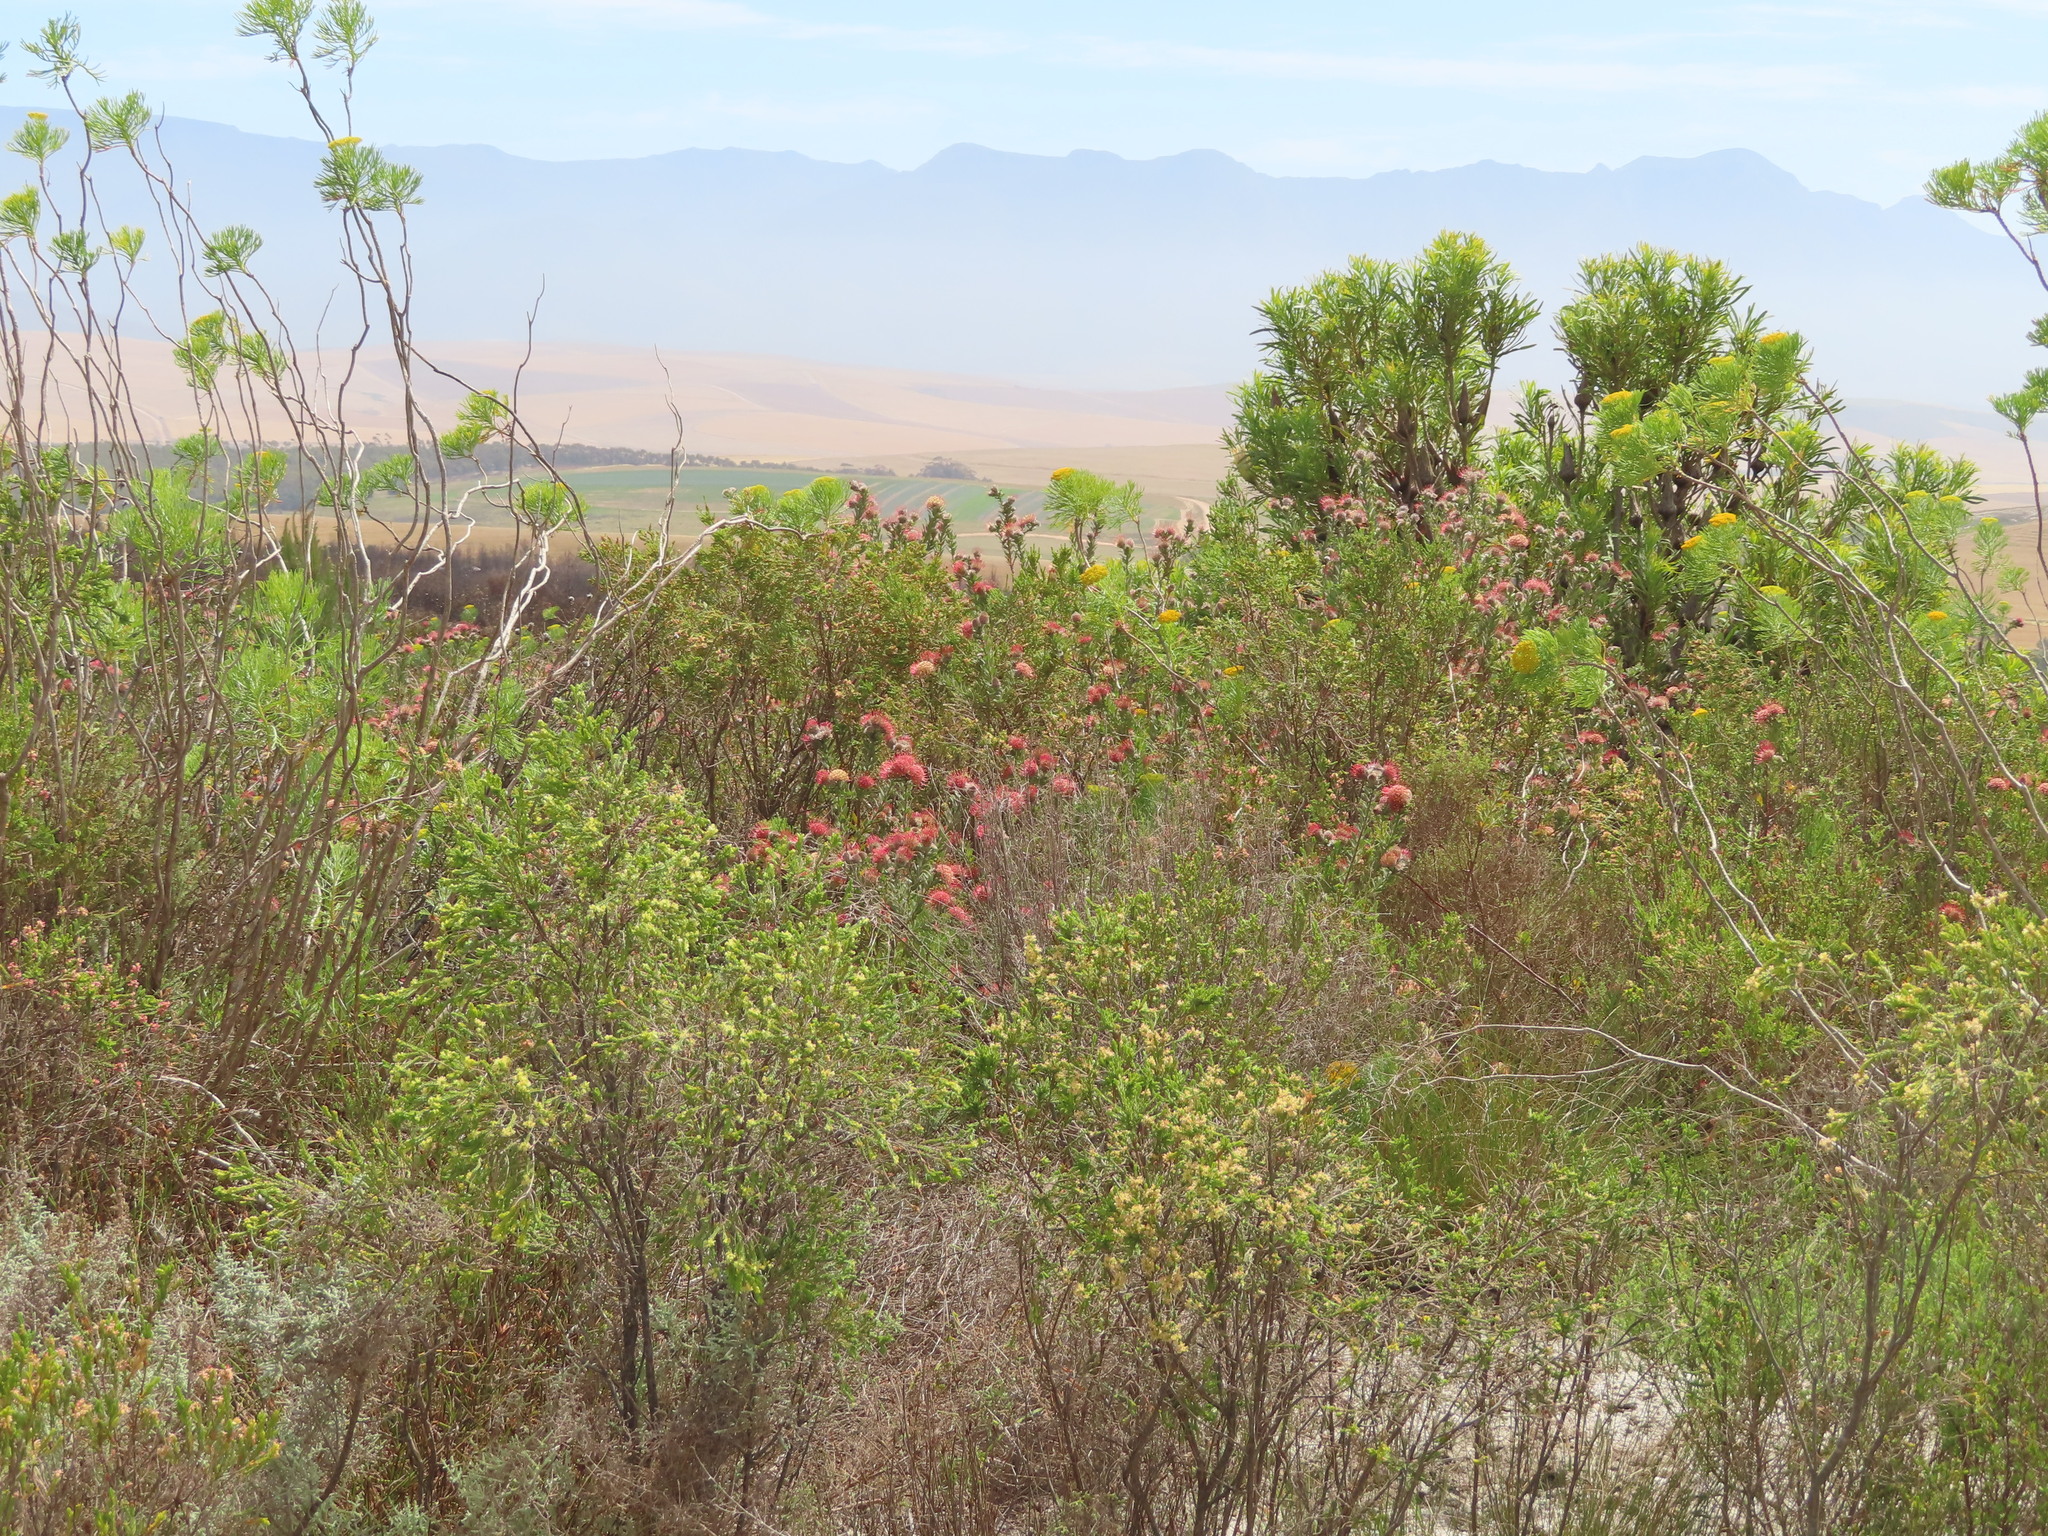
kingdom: Plantae
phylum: Tracheophyta
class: Magnoliopsida
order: Proteales
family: Proteaceae
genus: Leucospermum
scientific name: Leucospermum calligerum
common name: Arid pincushion
